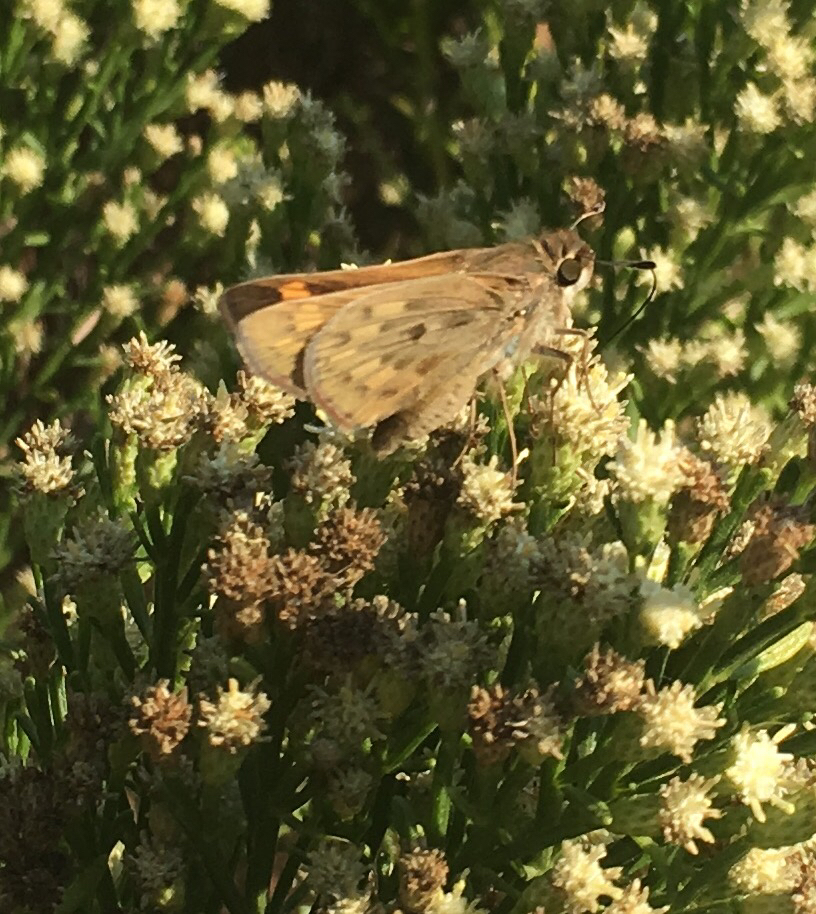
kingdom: Animalia
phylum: Arthropoda
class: Insecta
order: Lepidoptera
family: Hesperiidae
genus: Hylephila
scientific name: Hylephila phyleus
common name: Fiery skipper
